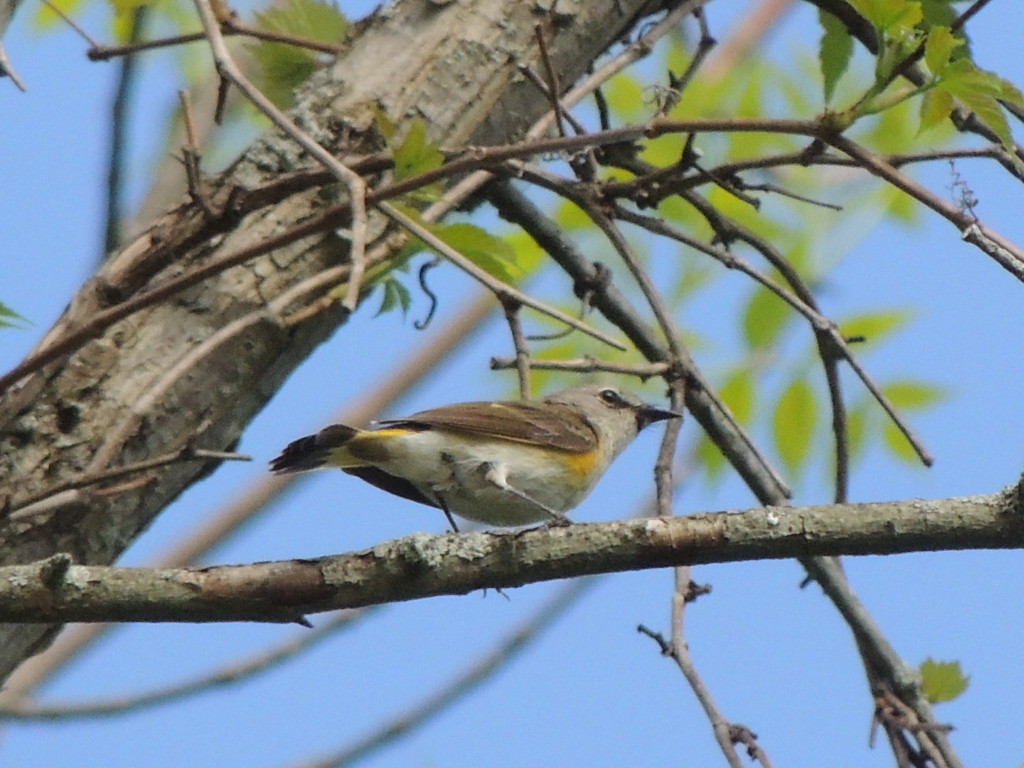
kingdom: Animalia
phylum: Chordata
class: Aves
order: Passeriformes
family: Parulidae
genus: Setophaga
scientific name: Setophaga ruticilla
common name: American redstart
